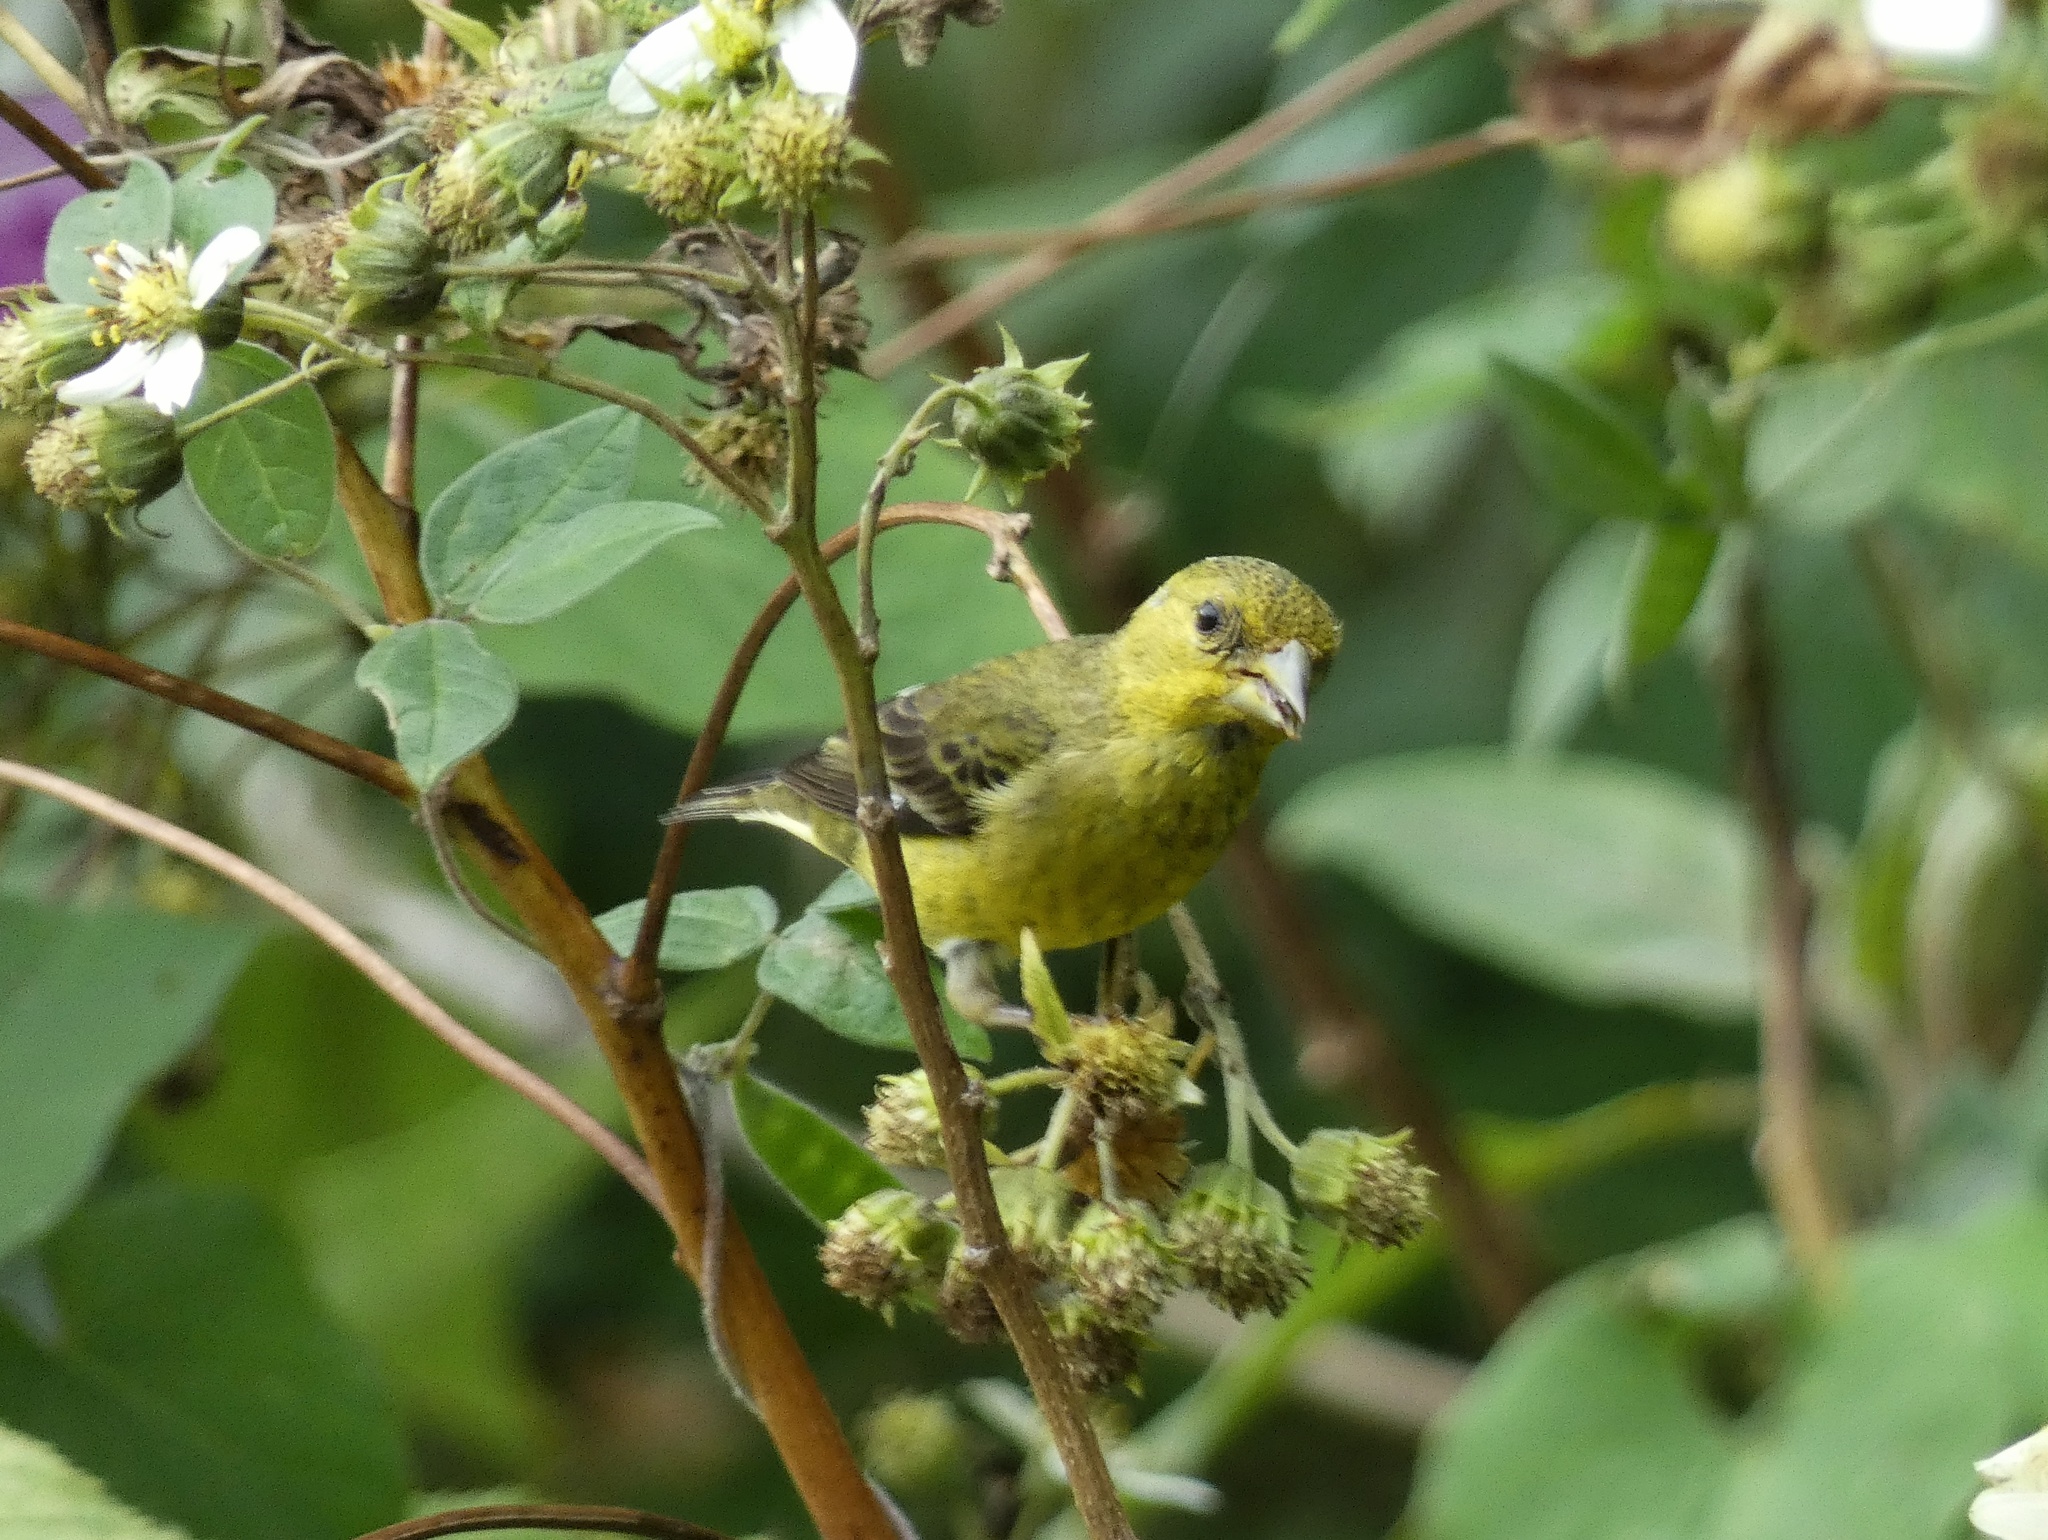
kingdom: Animalia
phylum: Chordata
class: Aves
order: Passeriformes
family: Fringillidae
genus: Spinus
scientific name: Spinus psaltria
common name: Lesser goldfinch
